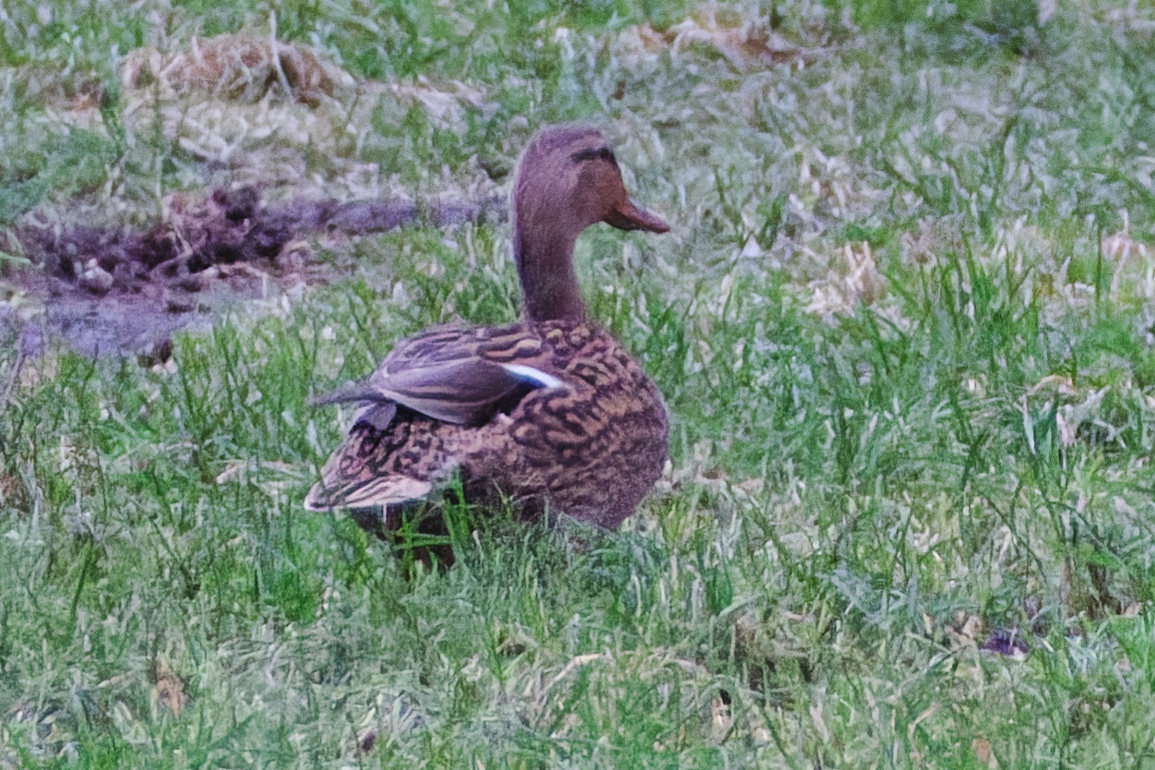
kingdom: Animalia
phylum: Chordata
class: Aves
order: Anseriformes
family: Anatidae
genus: Anas
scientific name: Anas platyrhynchos
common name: Mallard
